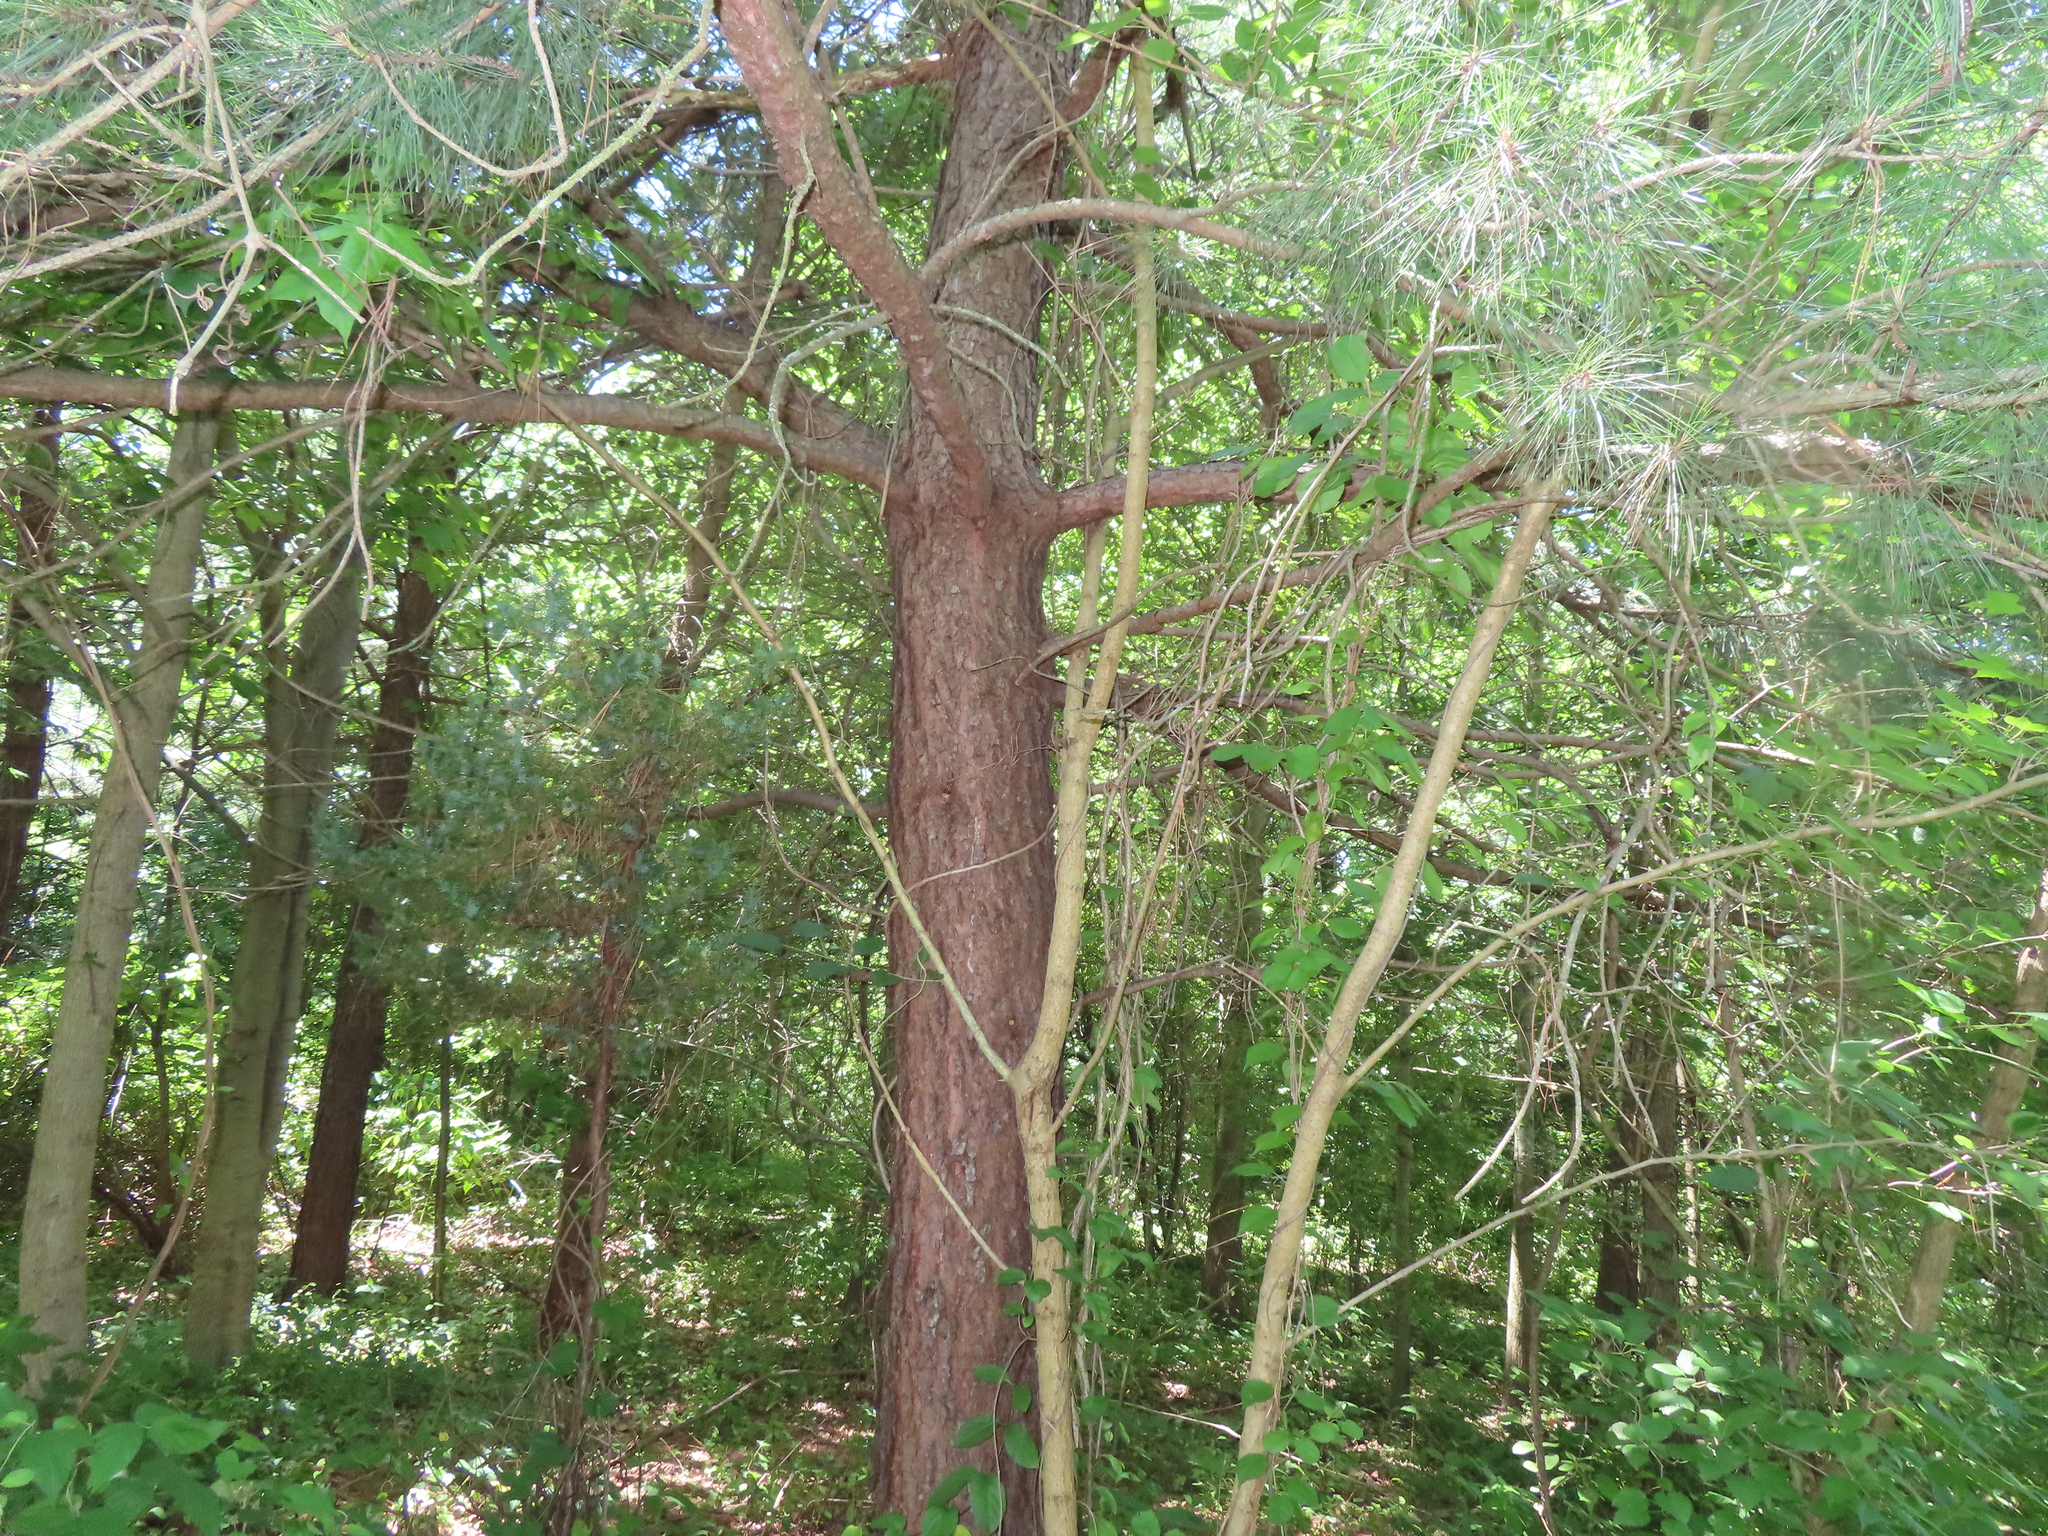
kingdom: Plantae
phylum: Tracheophyta
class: Pinopsida
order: Pinales
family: Pinaceae
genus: Pinus
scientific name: Pinus strobus
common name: Weymouth pine
